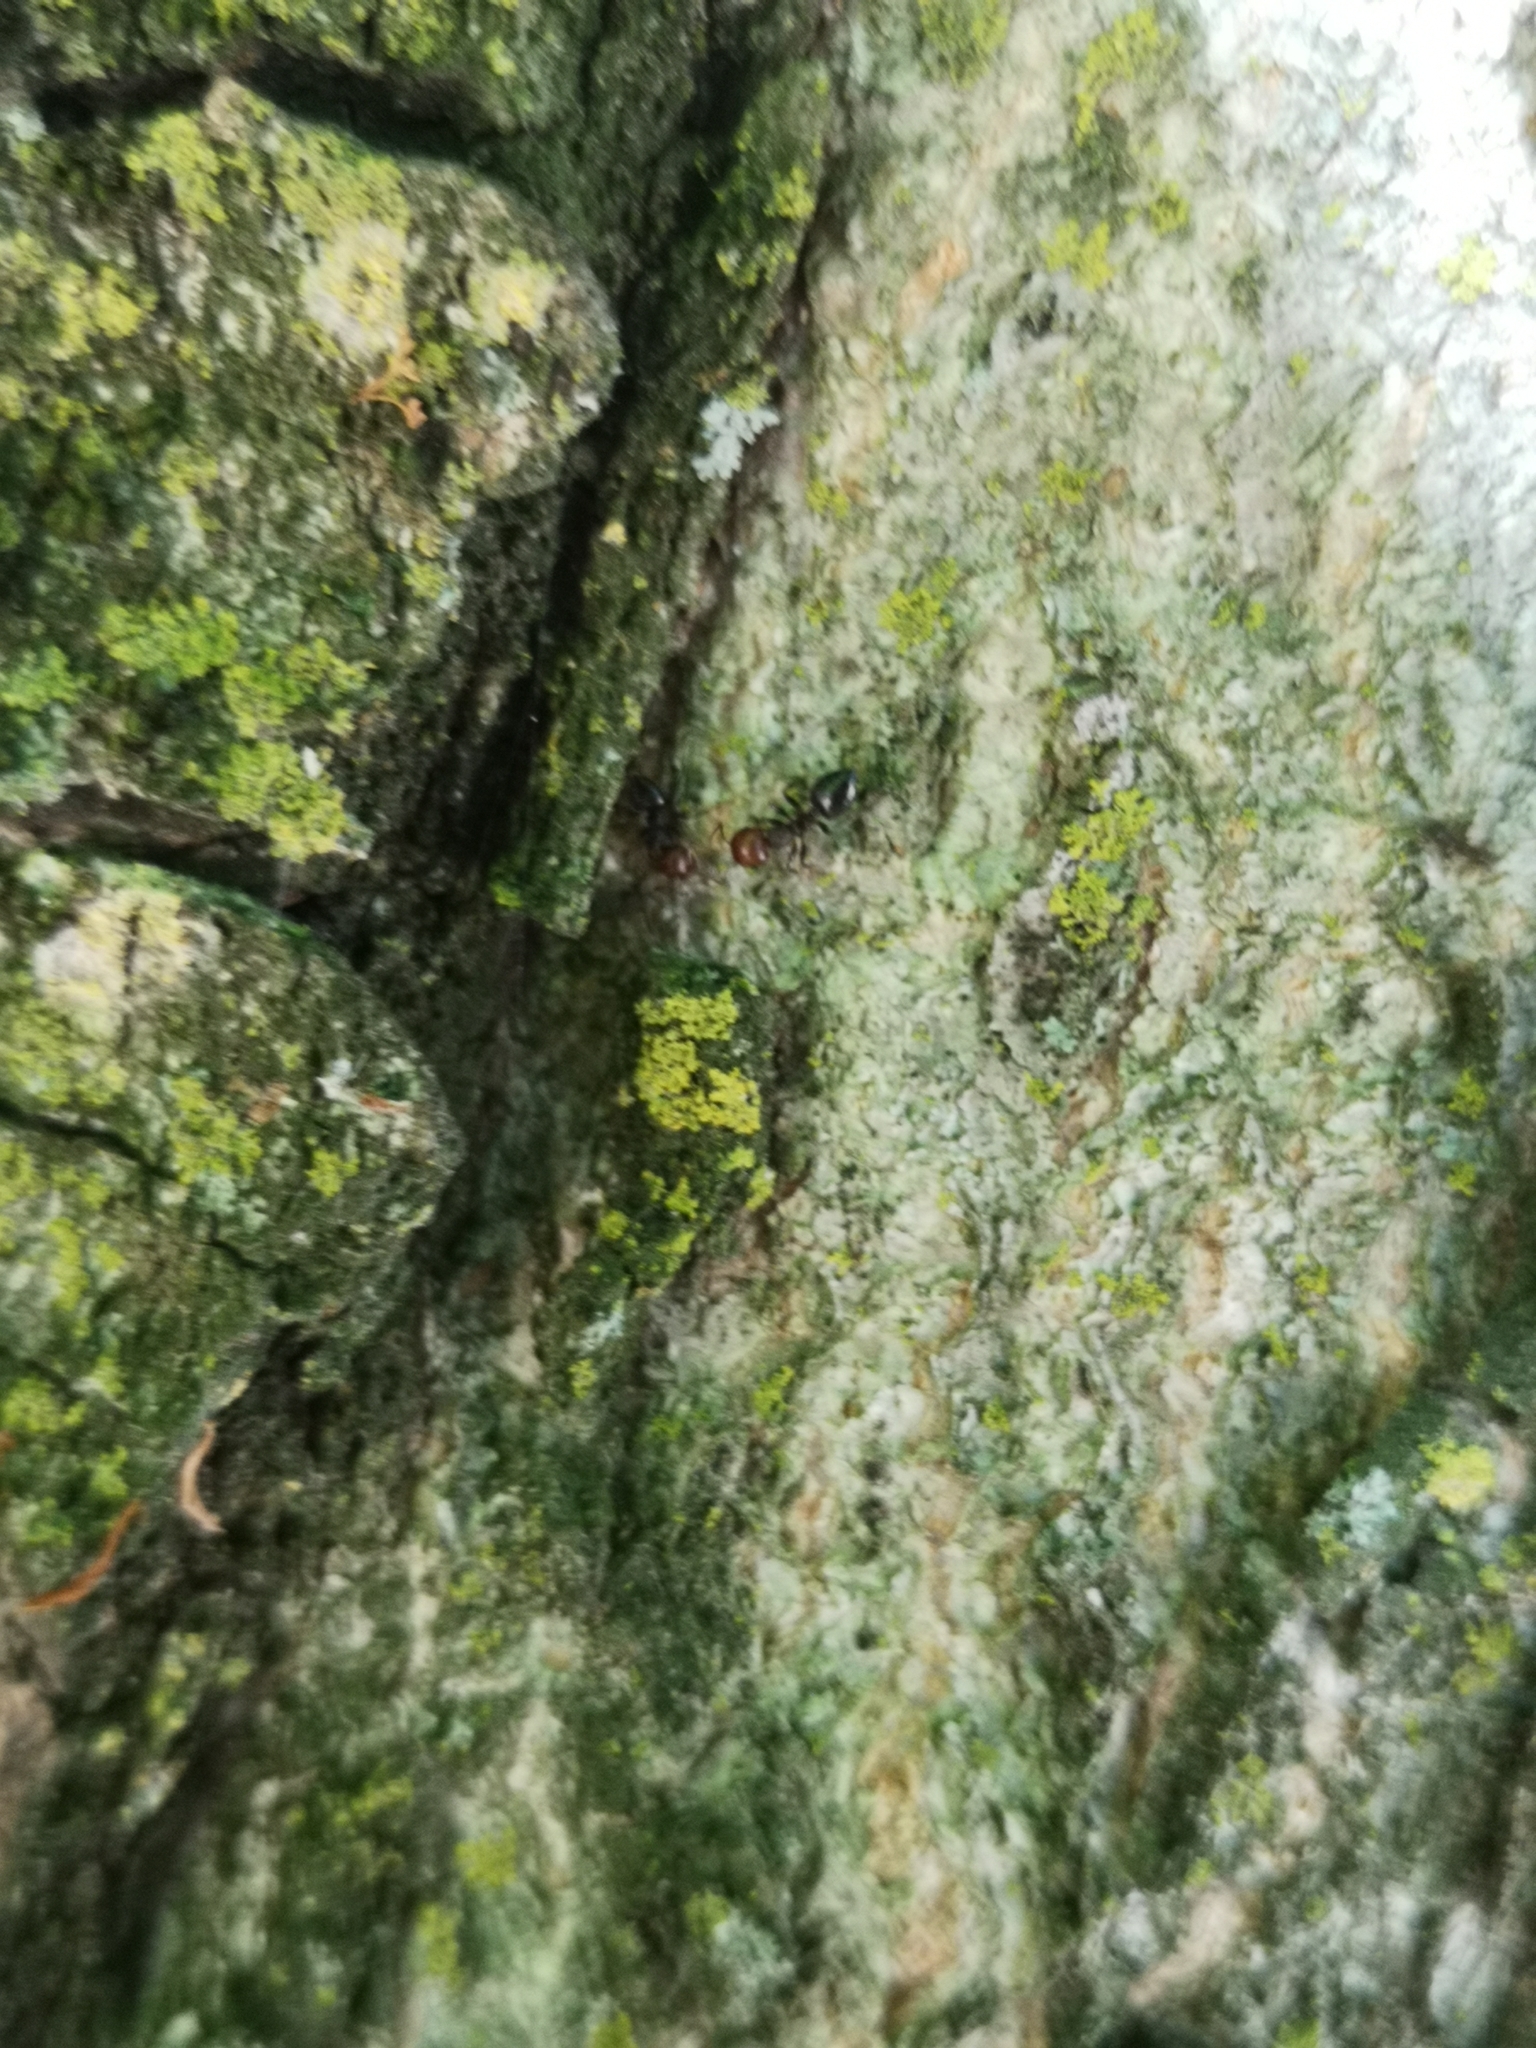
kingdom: Animalia
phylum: Arthropoda
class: Insecta
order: Hymenoptera
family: Formicidae
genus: Crematogaster
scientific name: Crematogaster scutellaris
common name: Fourmi du liège
